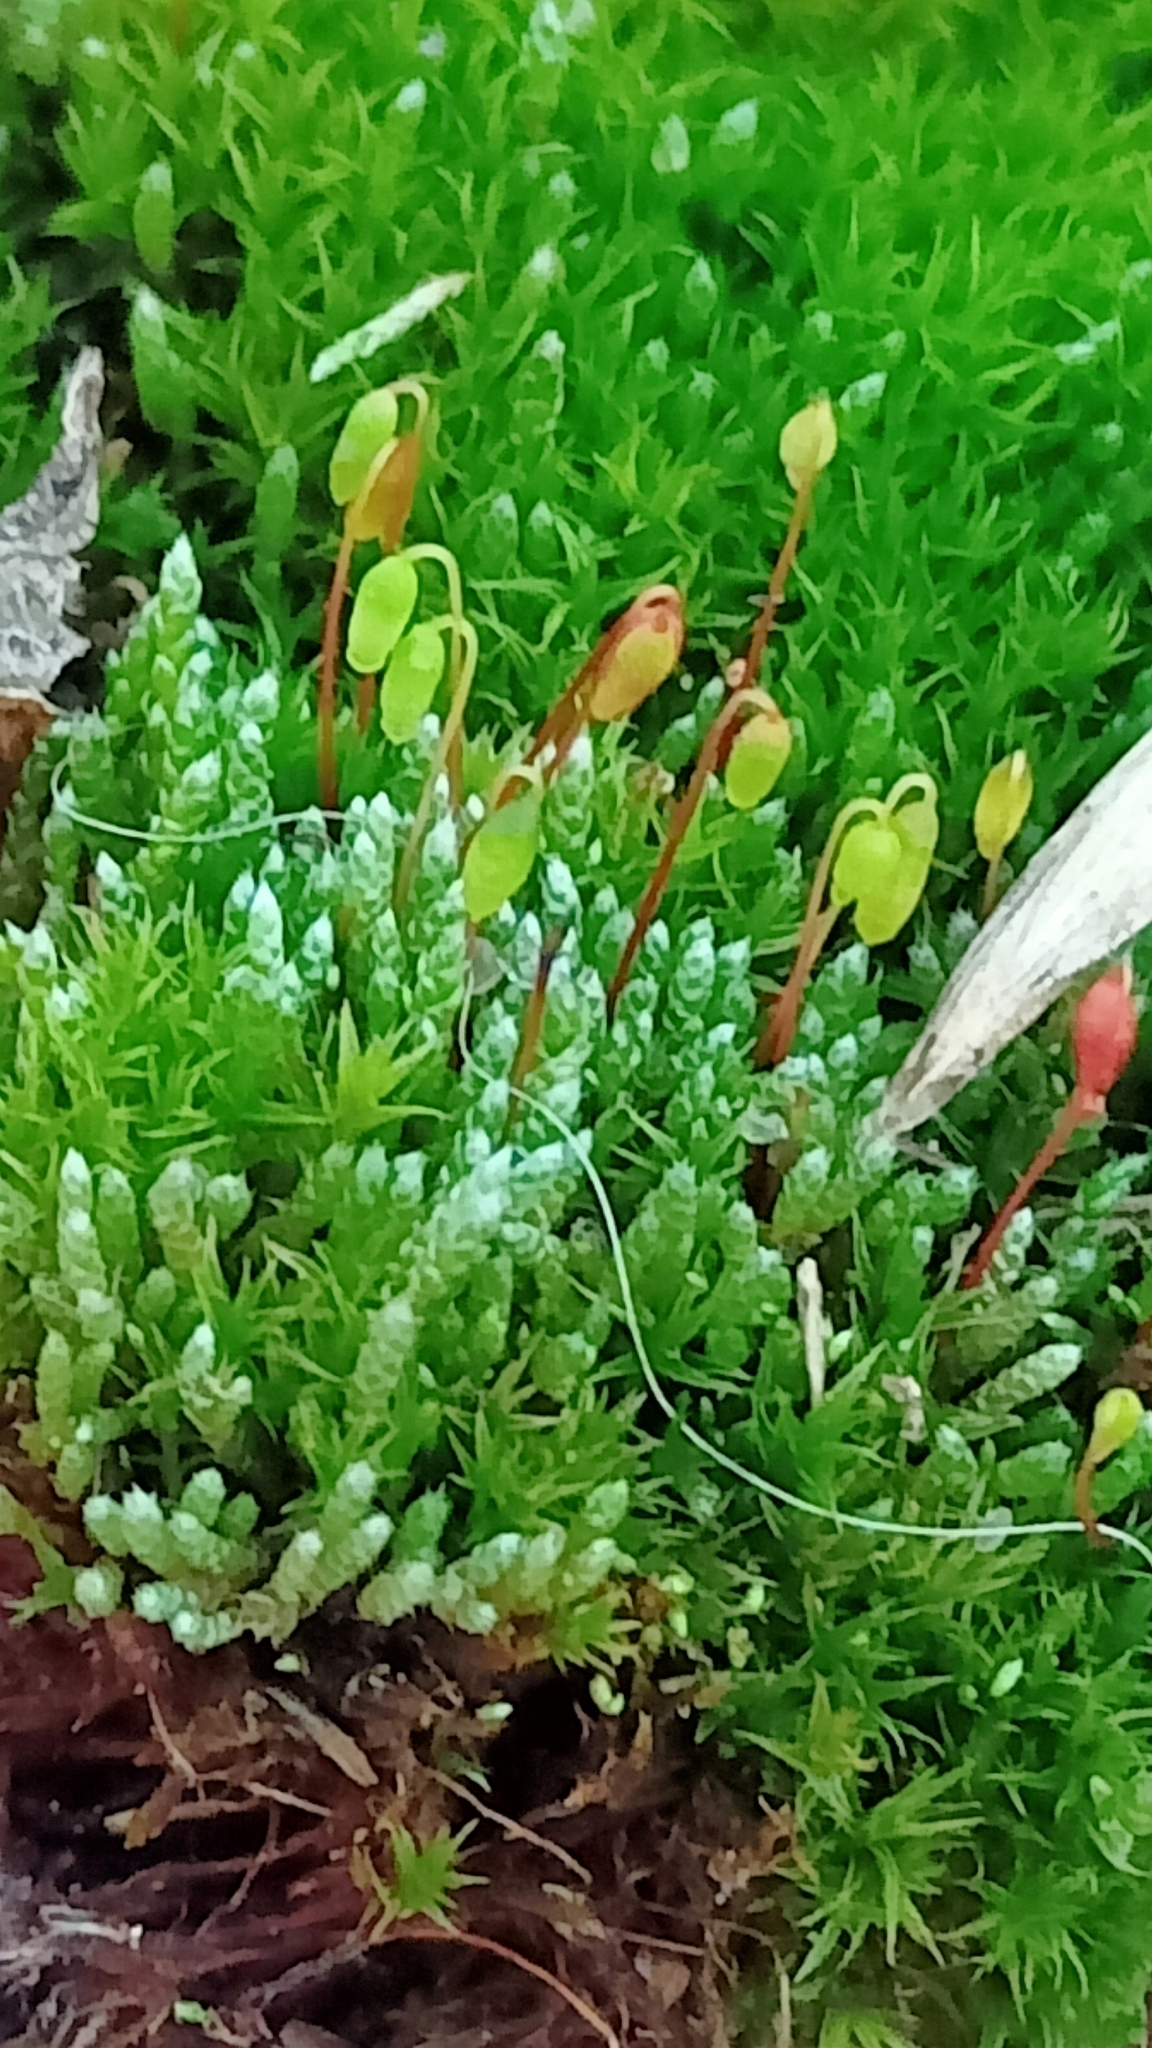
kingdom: Plantae
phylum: Bryophyta
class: Bryopsida
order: Dicranales
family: Ditrichaceae
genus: Ceratodon
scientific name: Ceratodon purpureus
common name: Redshank
